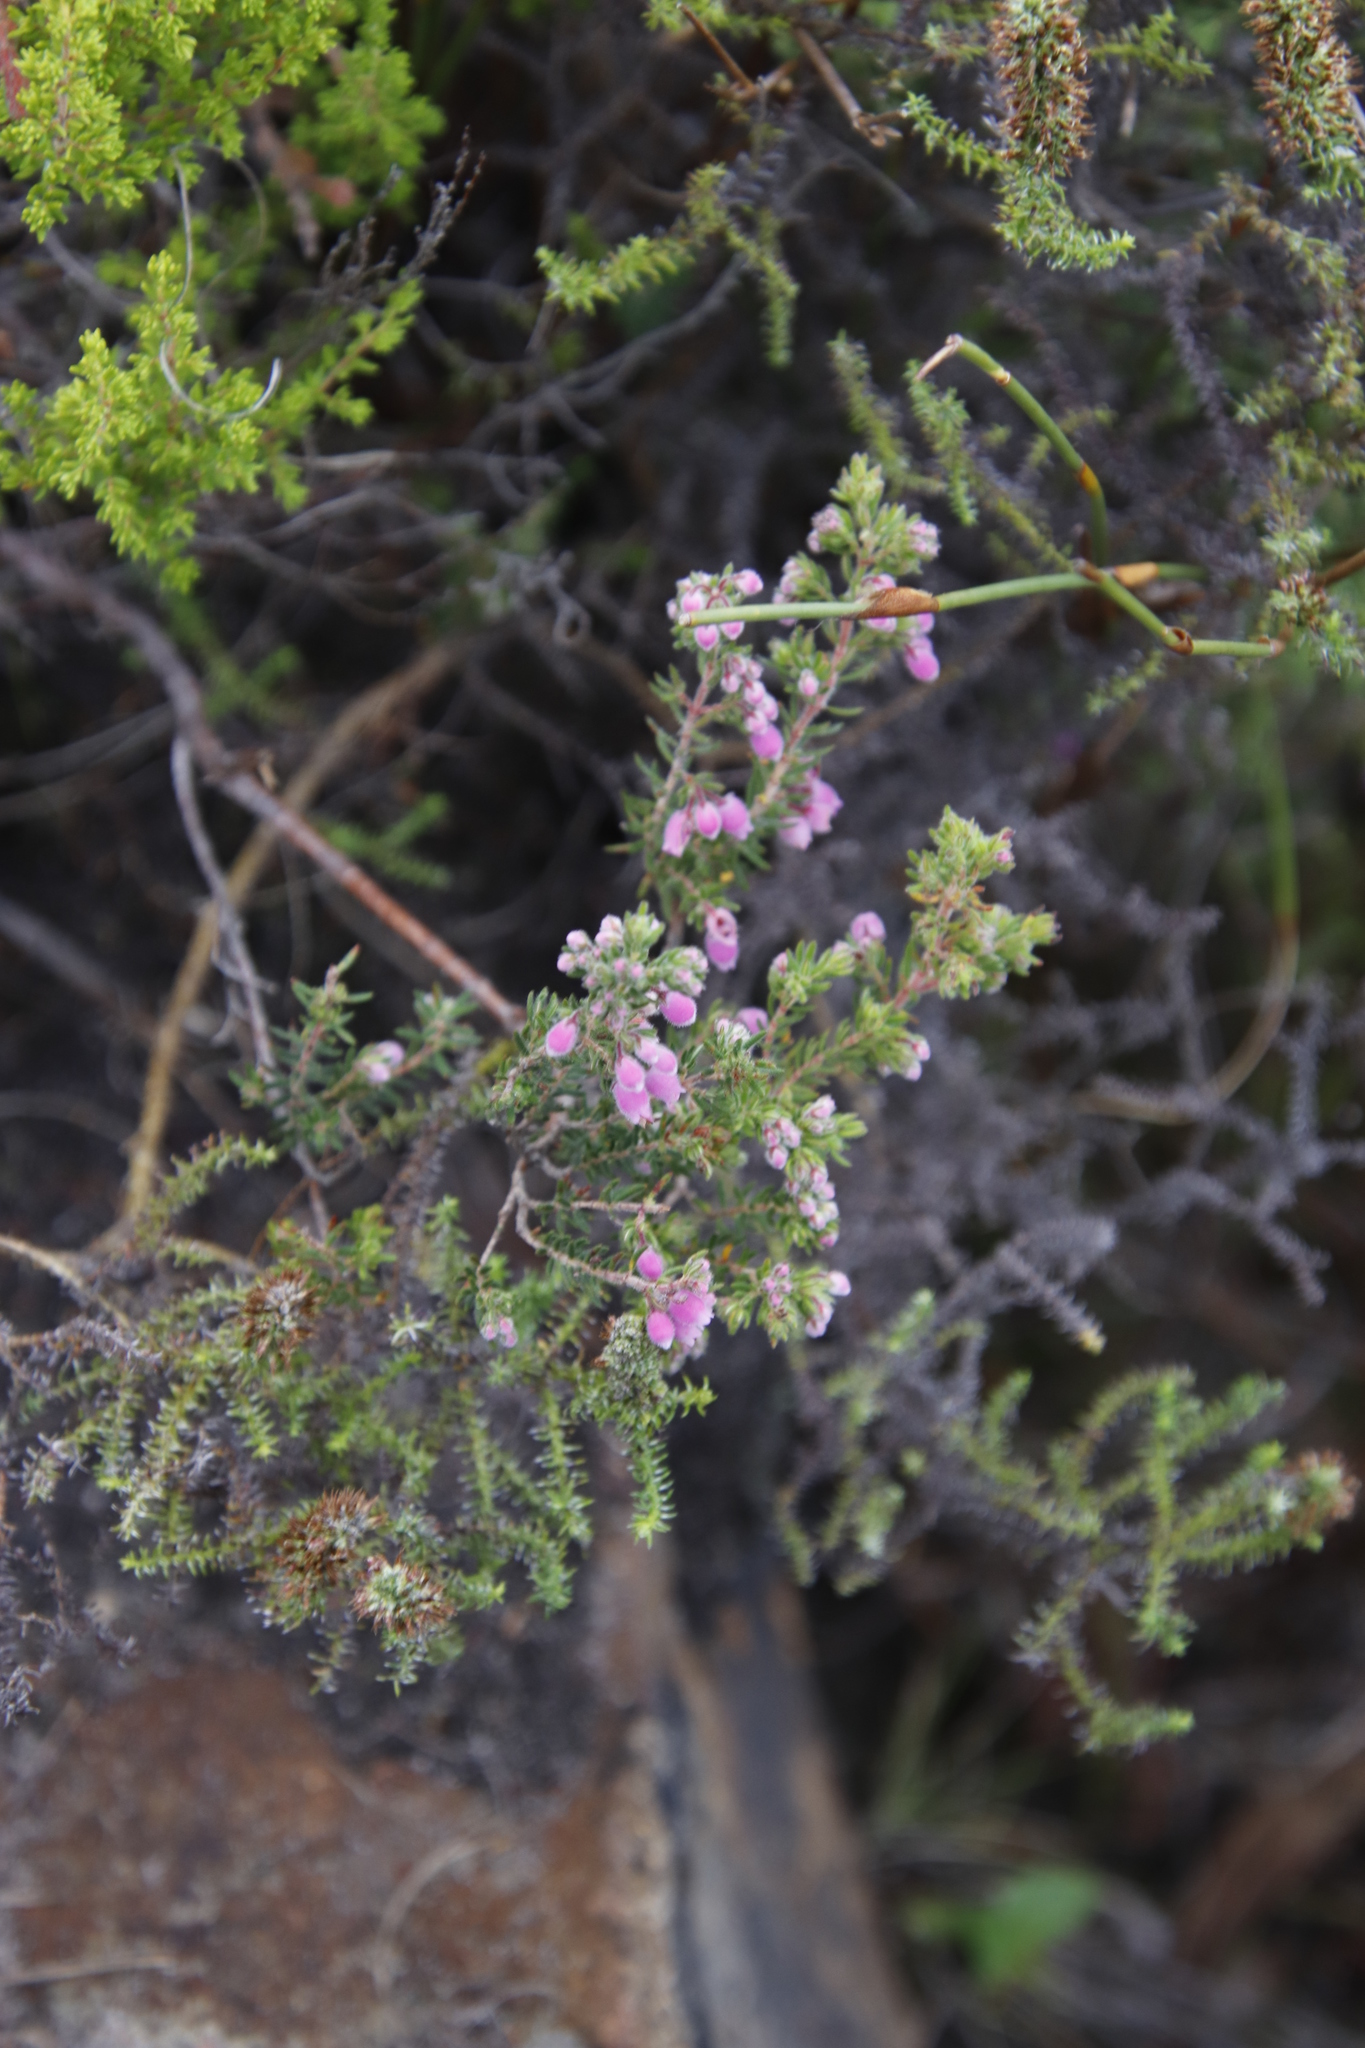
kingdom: Plantae
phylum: Tracheophyta
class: Magnoliopsida
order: Ericales
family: Ericaceae
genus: Erica
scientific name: Erica hirtiflora
